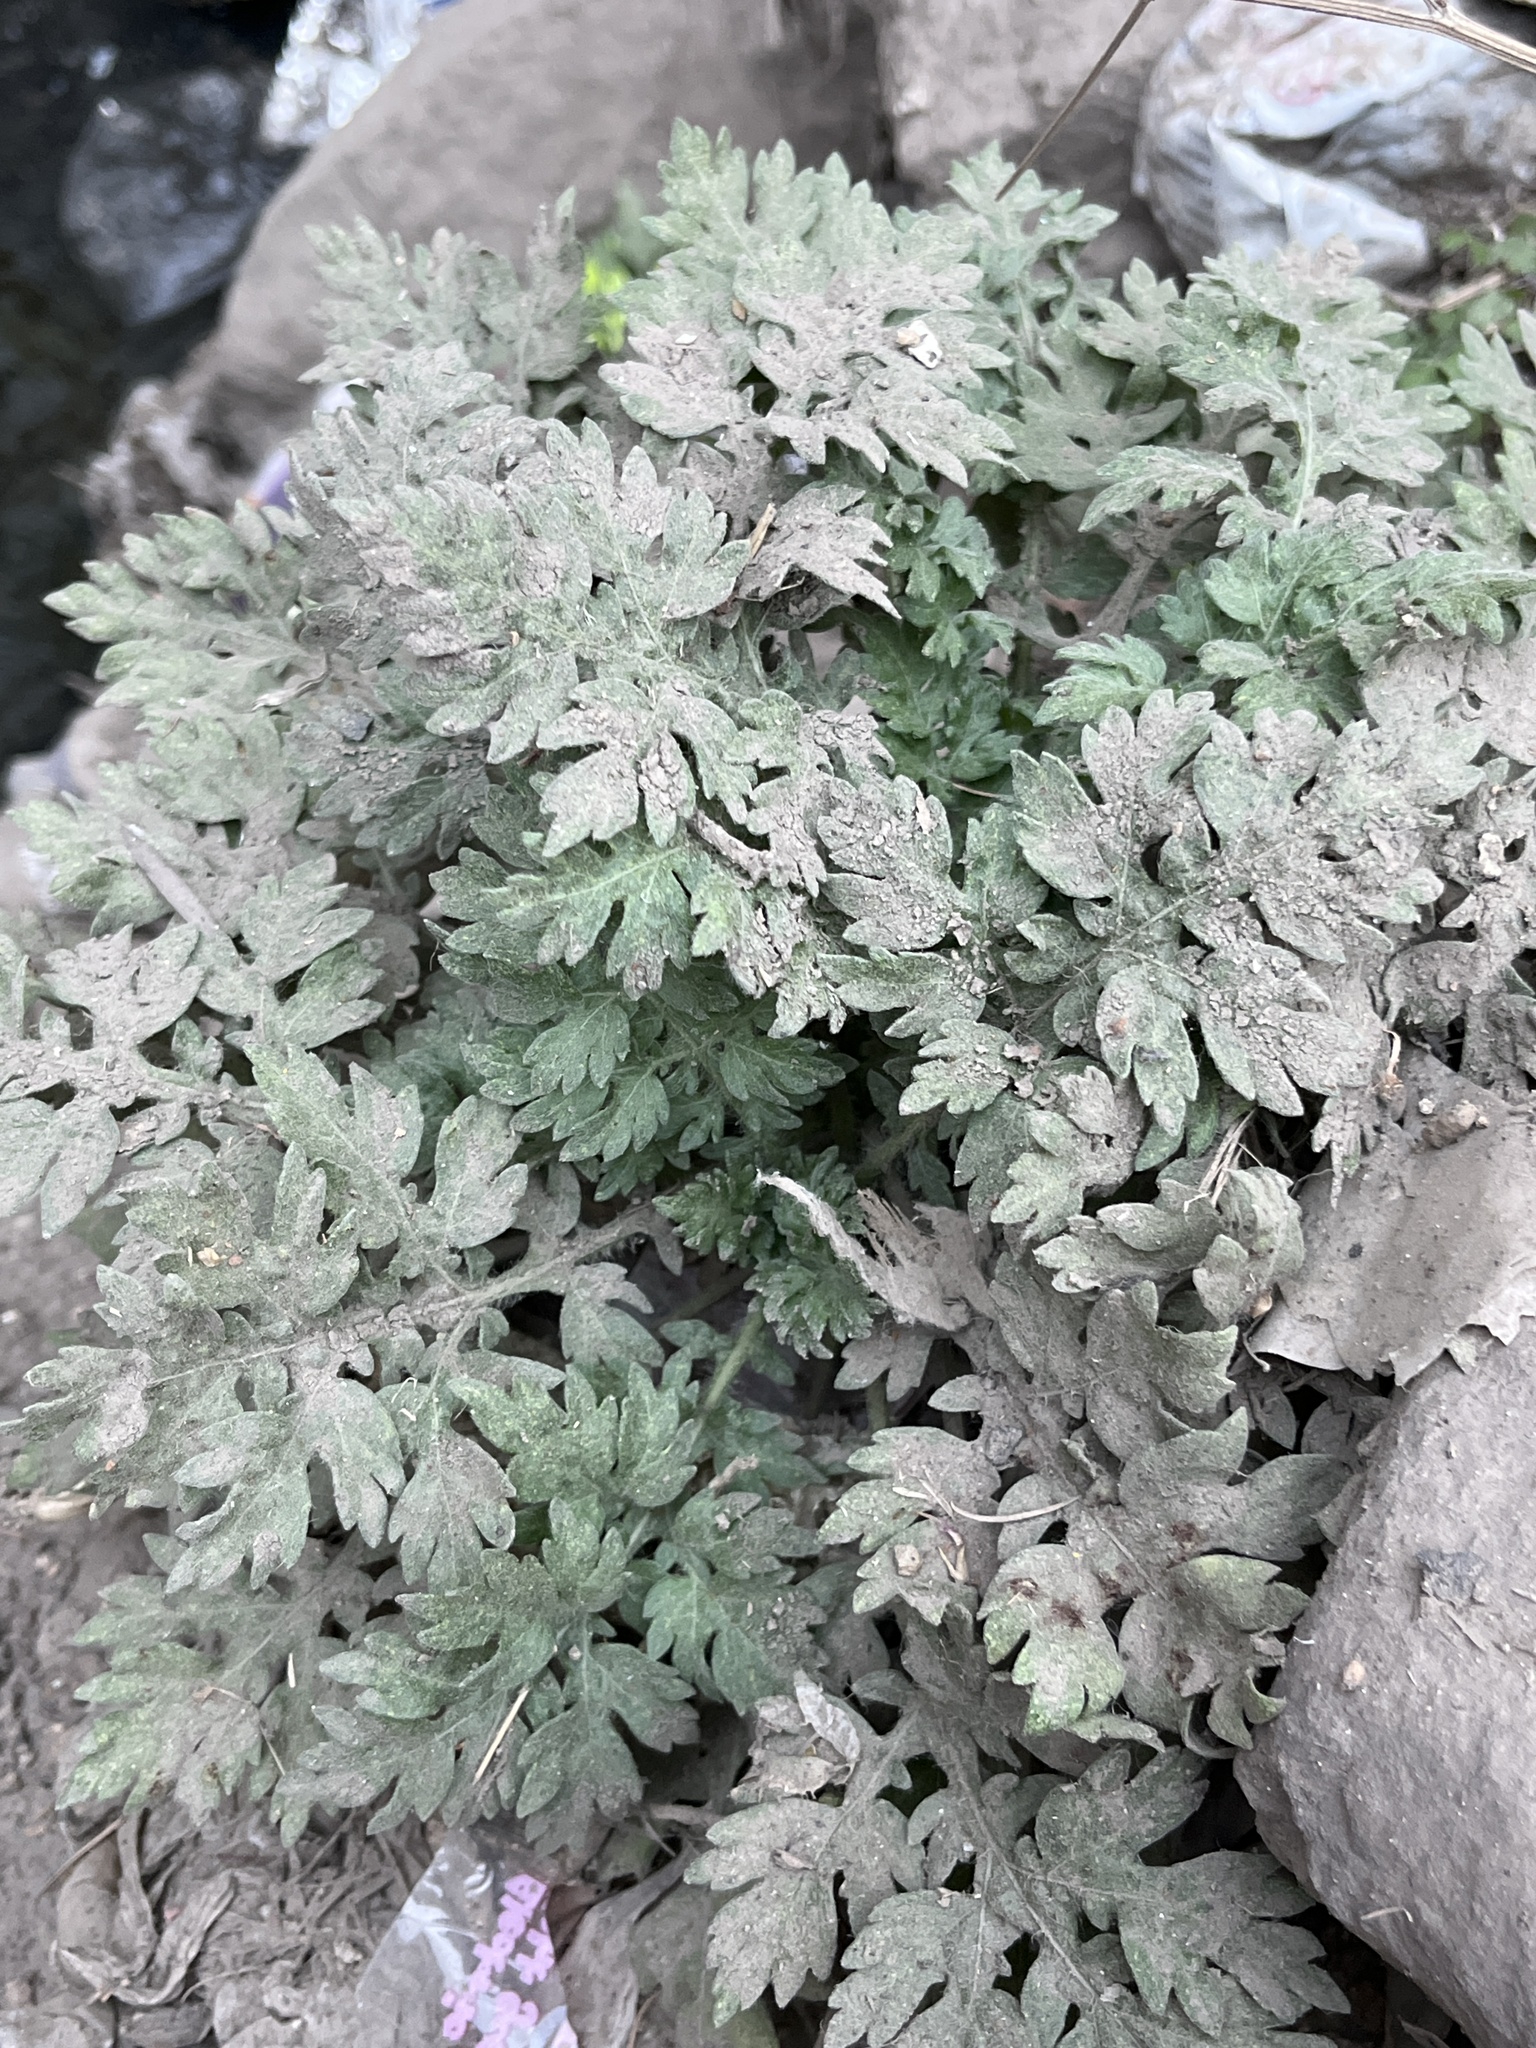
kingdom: Plantae
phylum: Tracheophyta
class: Magnoliopsida
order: Asterales
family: Asteraceae
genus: Parthenium
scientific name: Parthenium hysterophorus
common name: Santa maria feverfew
